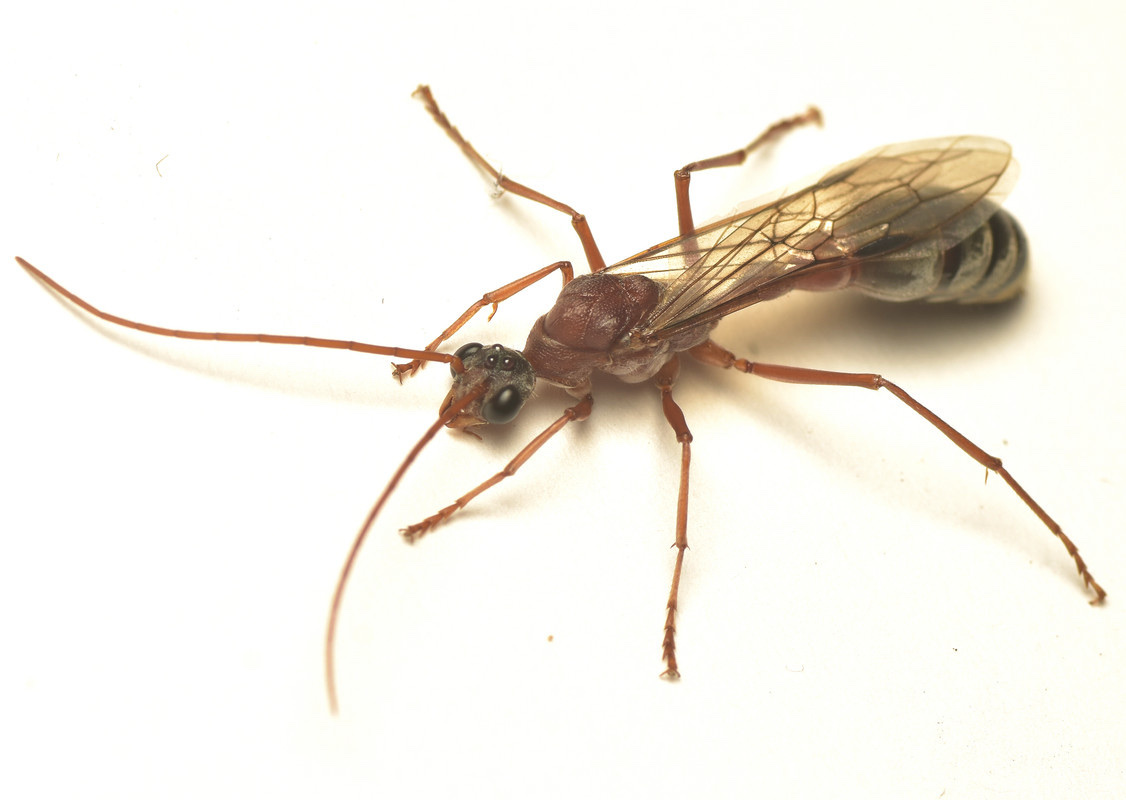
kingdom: Animalia
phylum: Arthropoda
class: Insecta
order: Hymenoptera
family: Formicidae
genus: Myrmecia
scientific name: Myrmecia nigriceps
